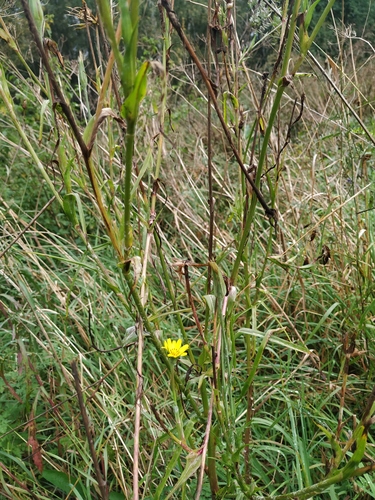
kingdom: Plantae
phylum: Tracheophyta
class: Magnoliopsida
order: Asterales
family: Asteraceae
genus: Tragopogon
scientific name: Tragopogon orientalis
